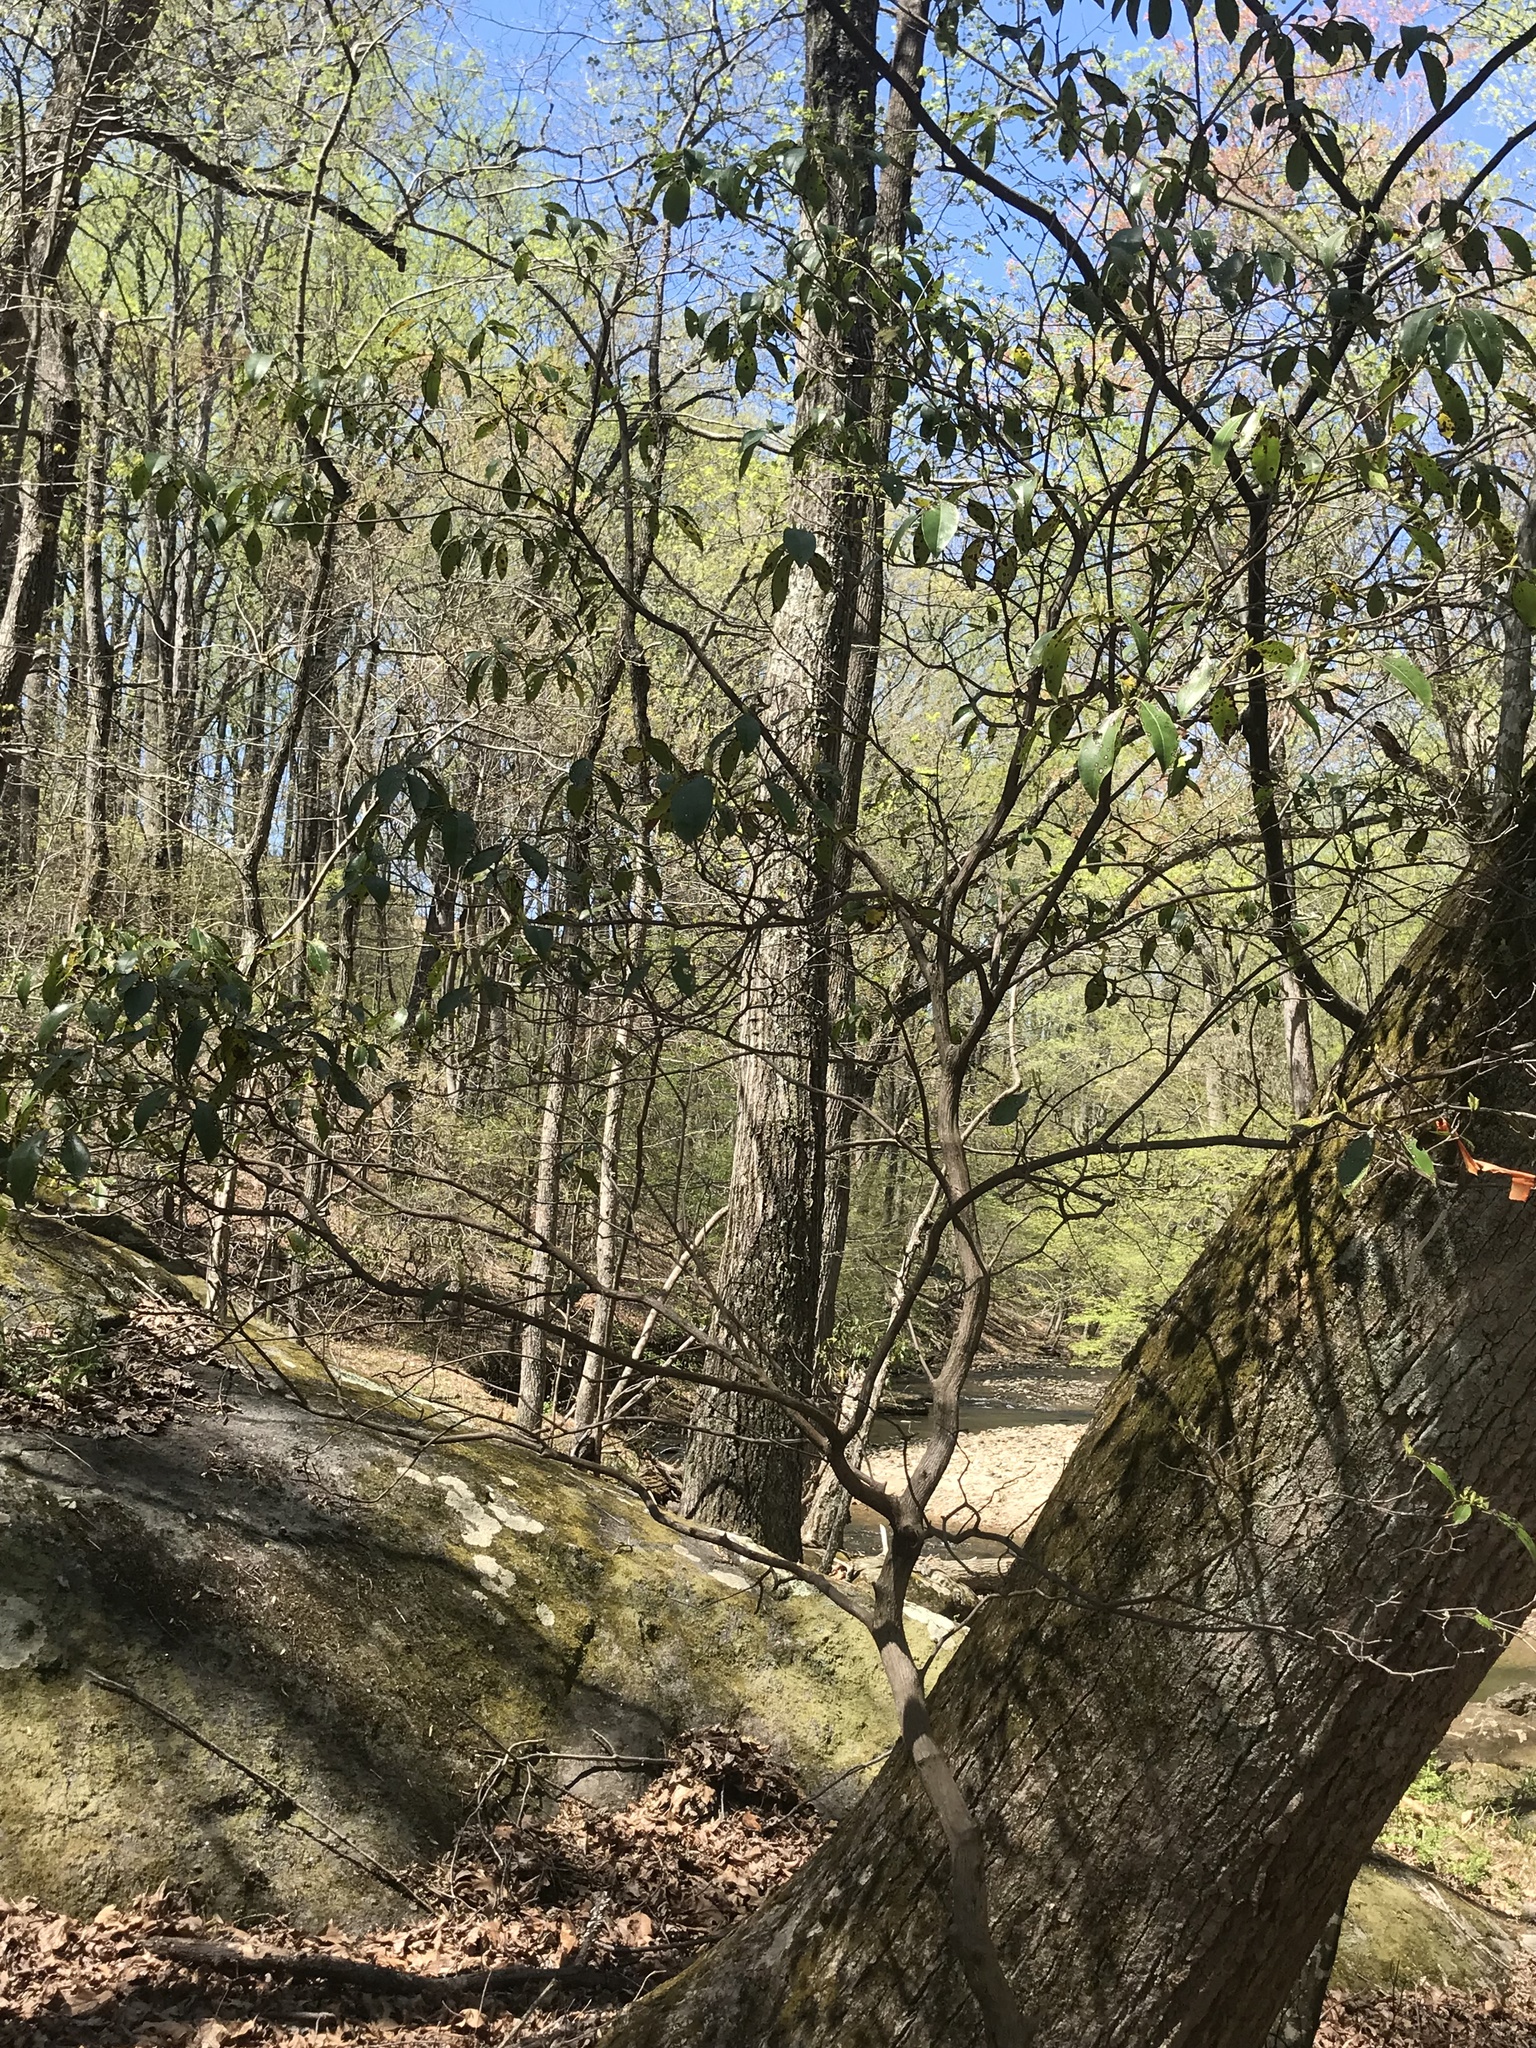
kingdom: Plantae
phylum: Tracheophyta
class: Magnoliopsida
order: Ericales
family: Ericaceae
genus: Kalmia
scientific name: Kalmia latifolia
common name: Mountain-laurel
